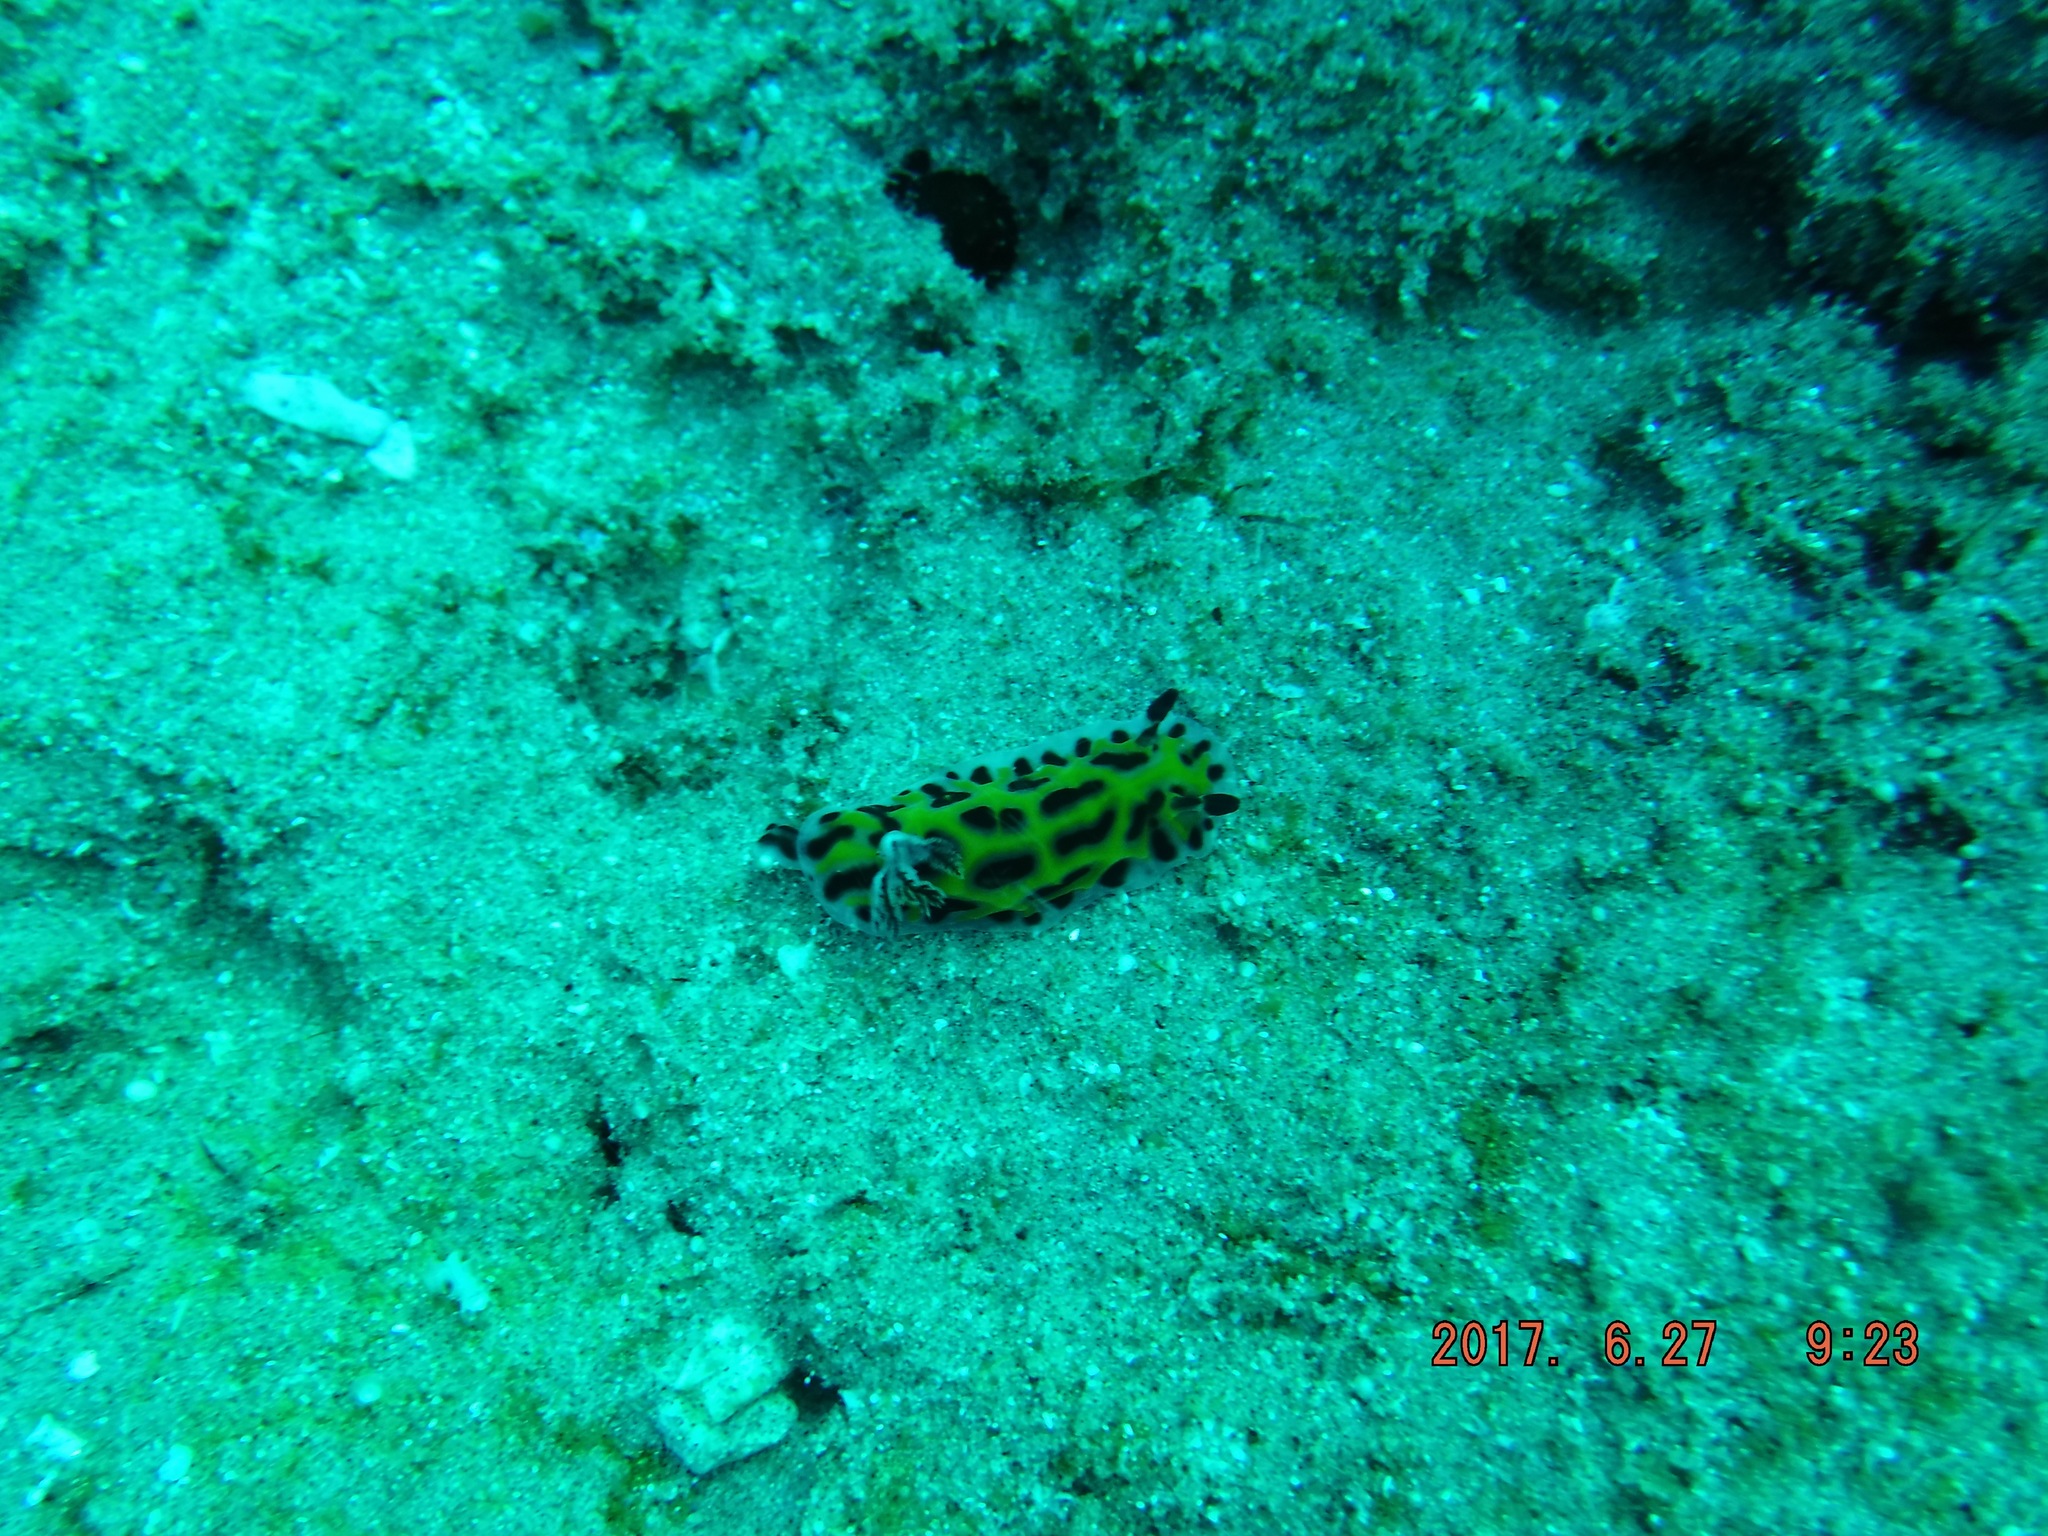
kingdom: Animalia
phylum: Mollusca
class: Gastropoda
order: Nudibranchia
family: Discodorididae
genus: Halgerda
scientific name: Halgerda wasinensis
